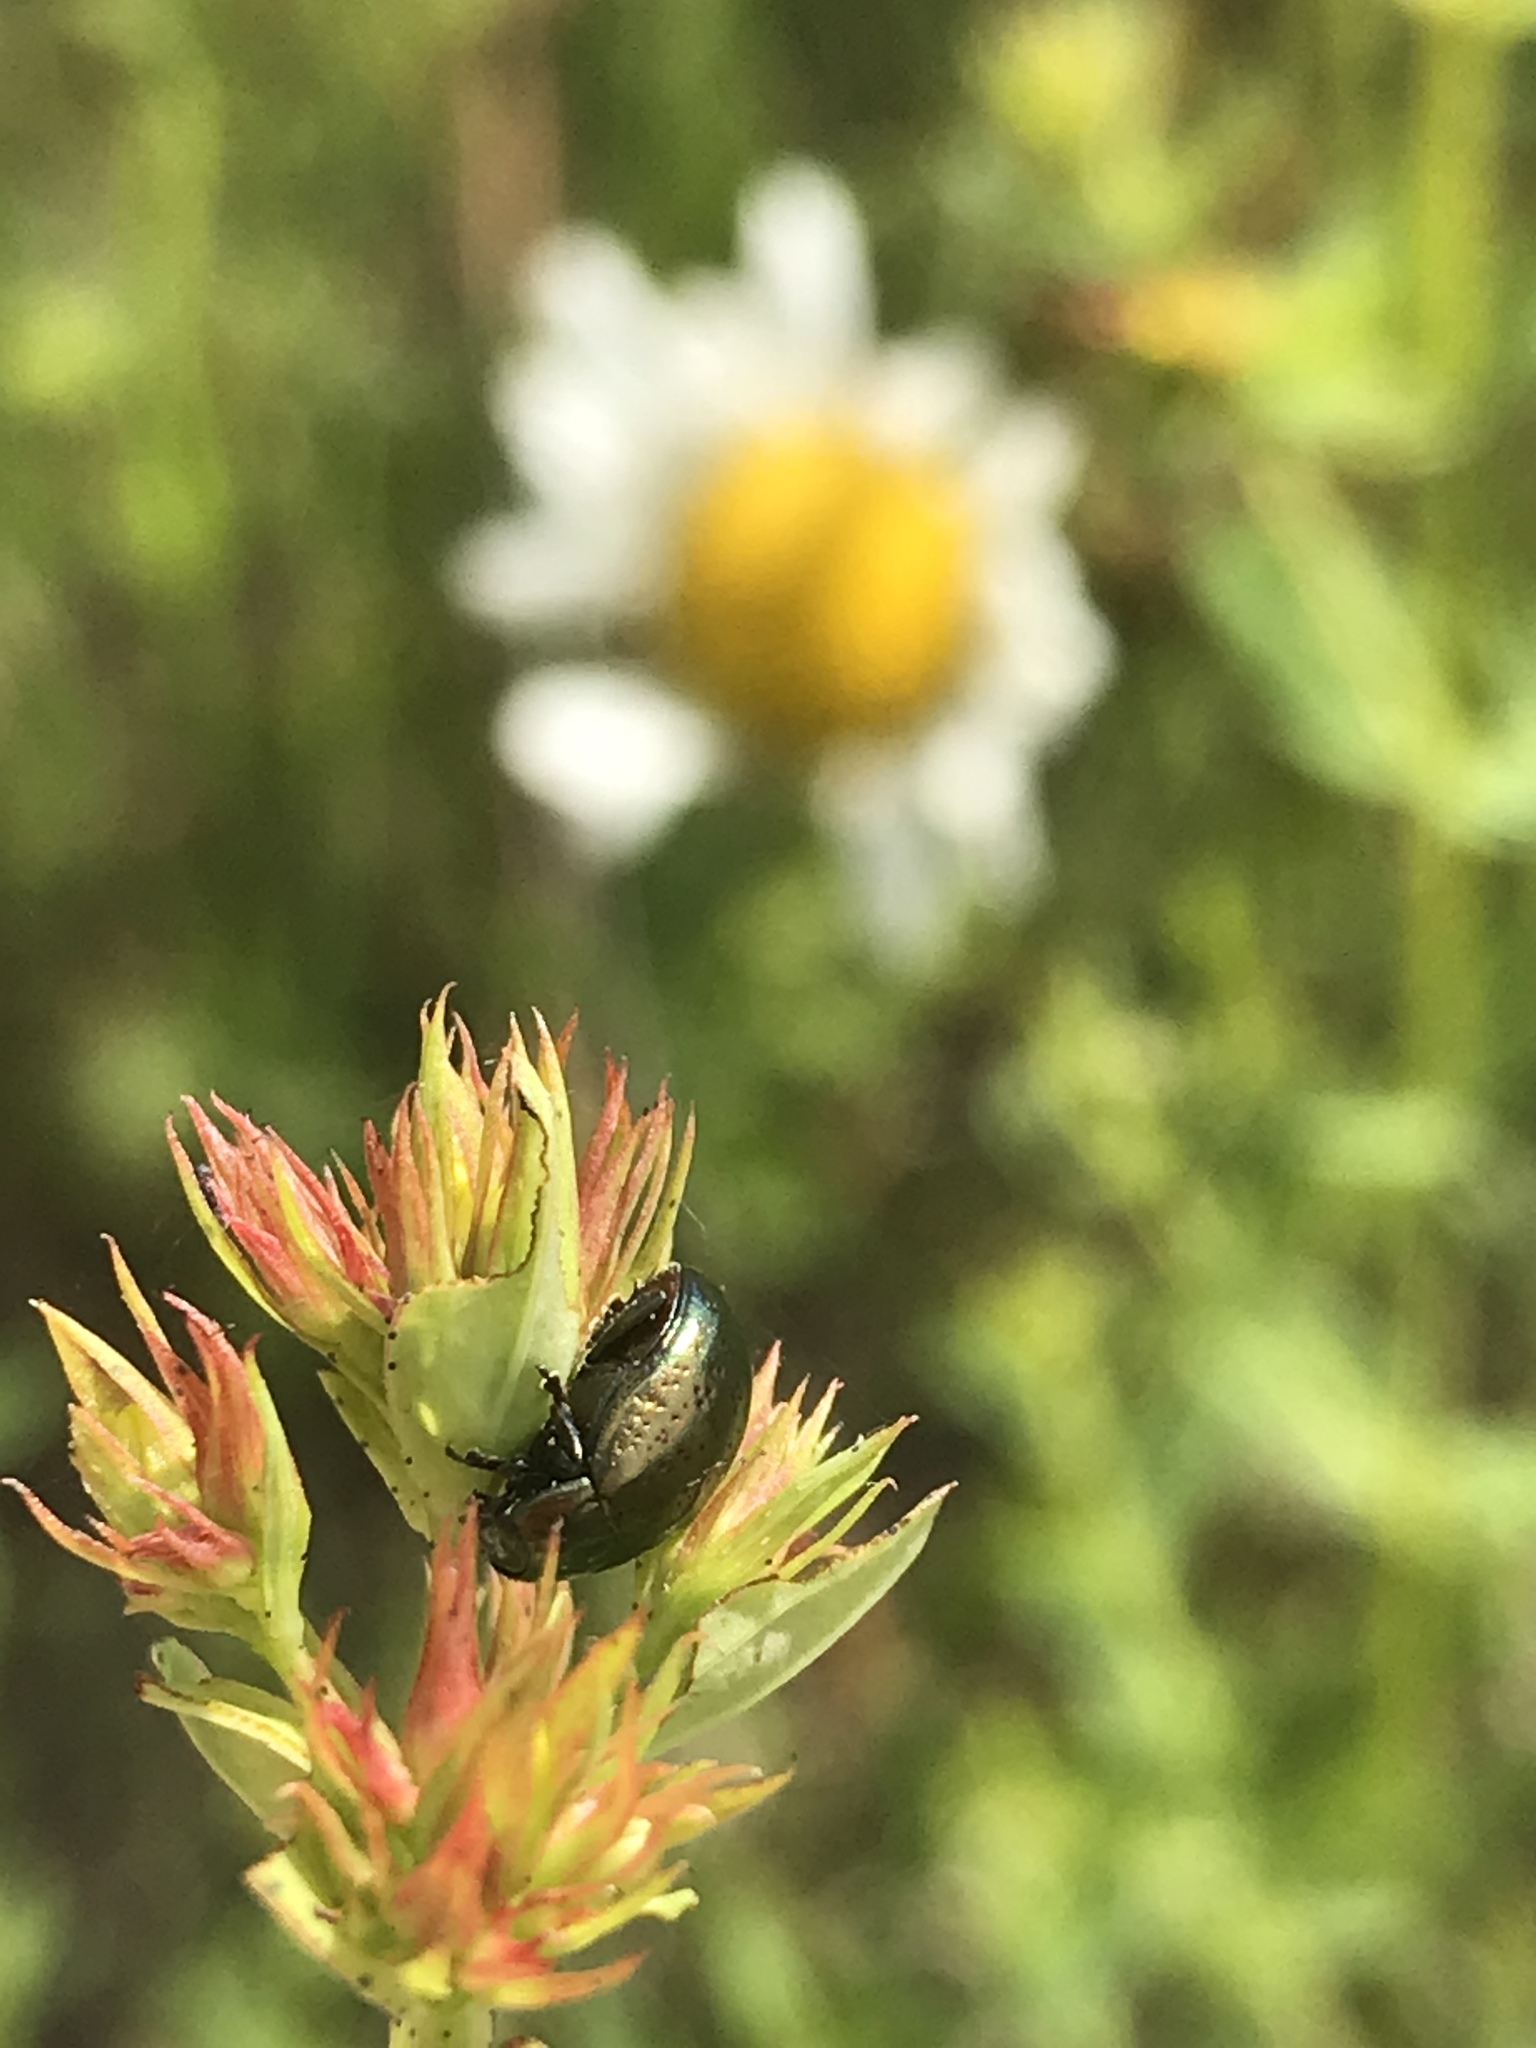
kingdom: Animalia
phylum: Arthropoda
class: Insecta
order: Coleoptera
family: Chrysomelidae
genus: Chrysolina
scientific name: Chrysolina hyperici
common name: St. johnswort beetle
